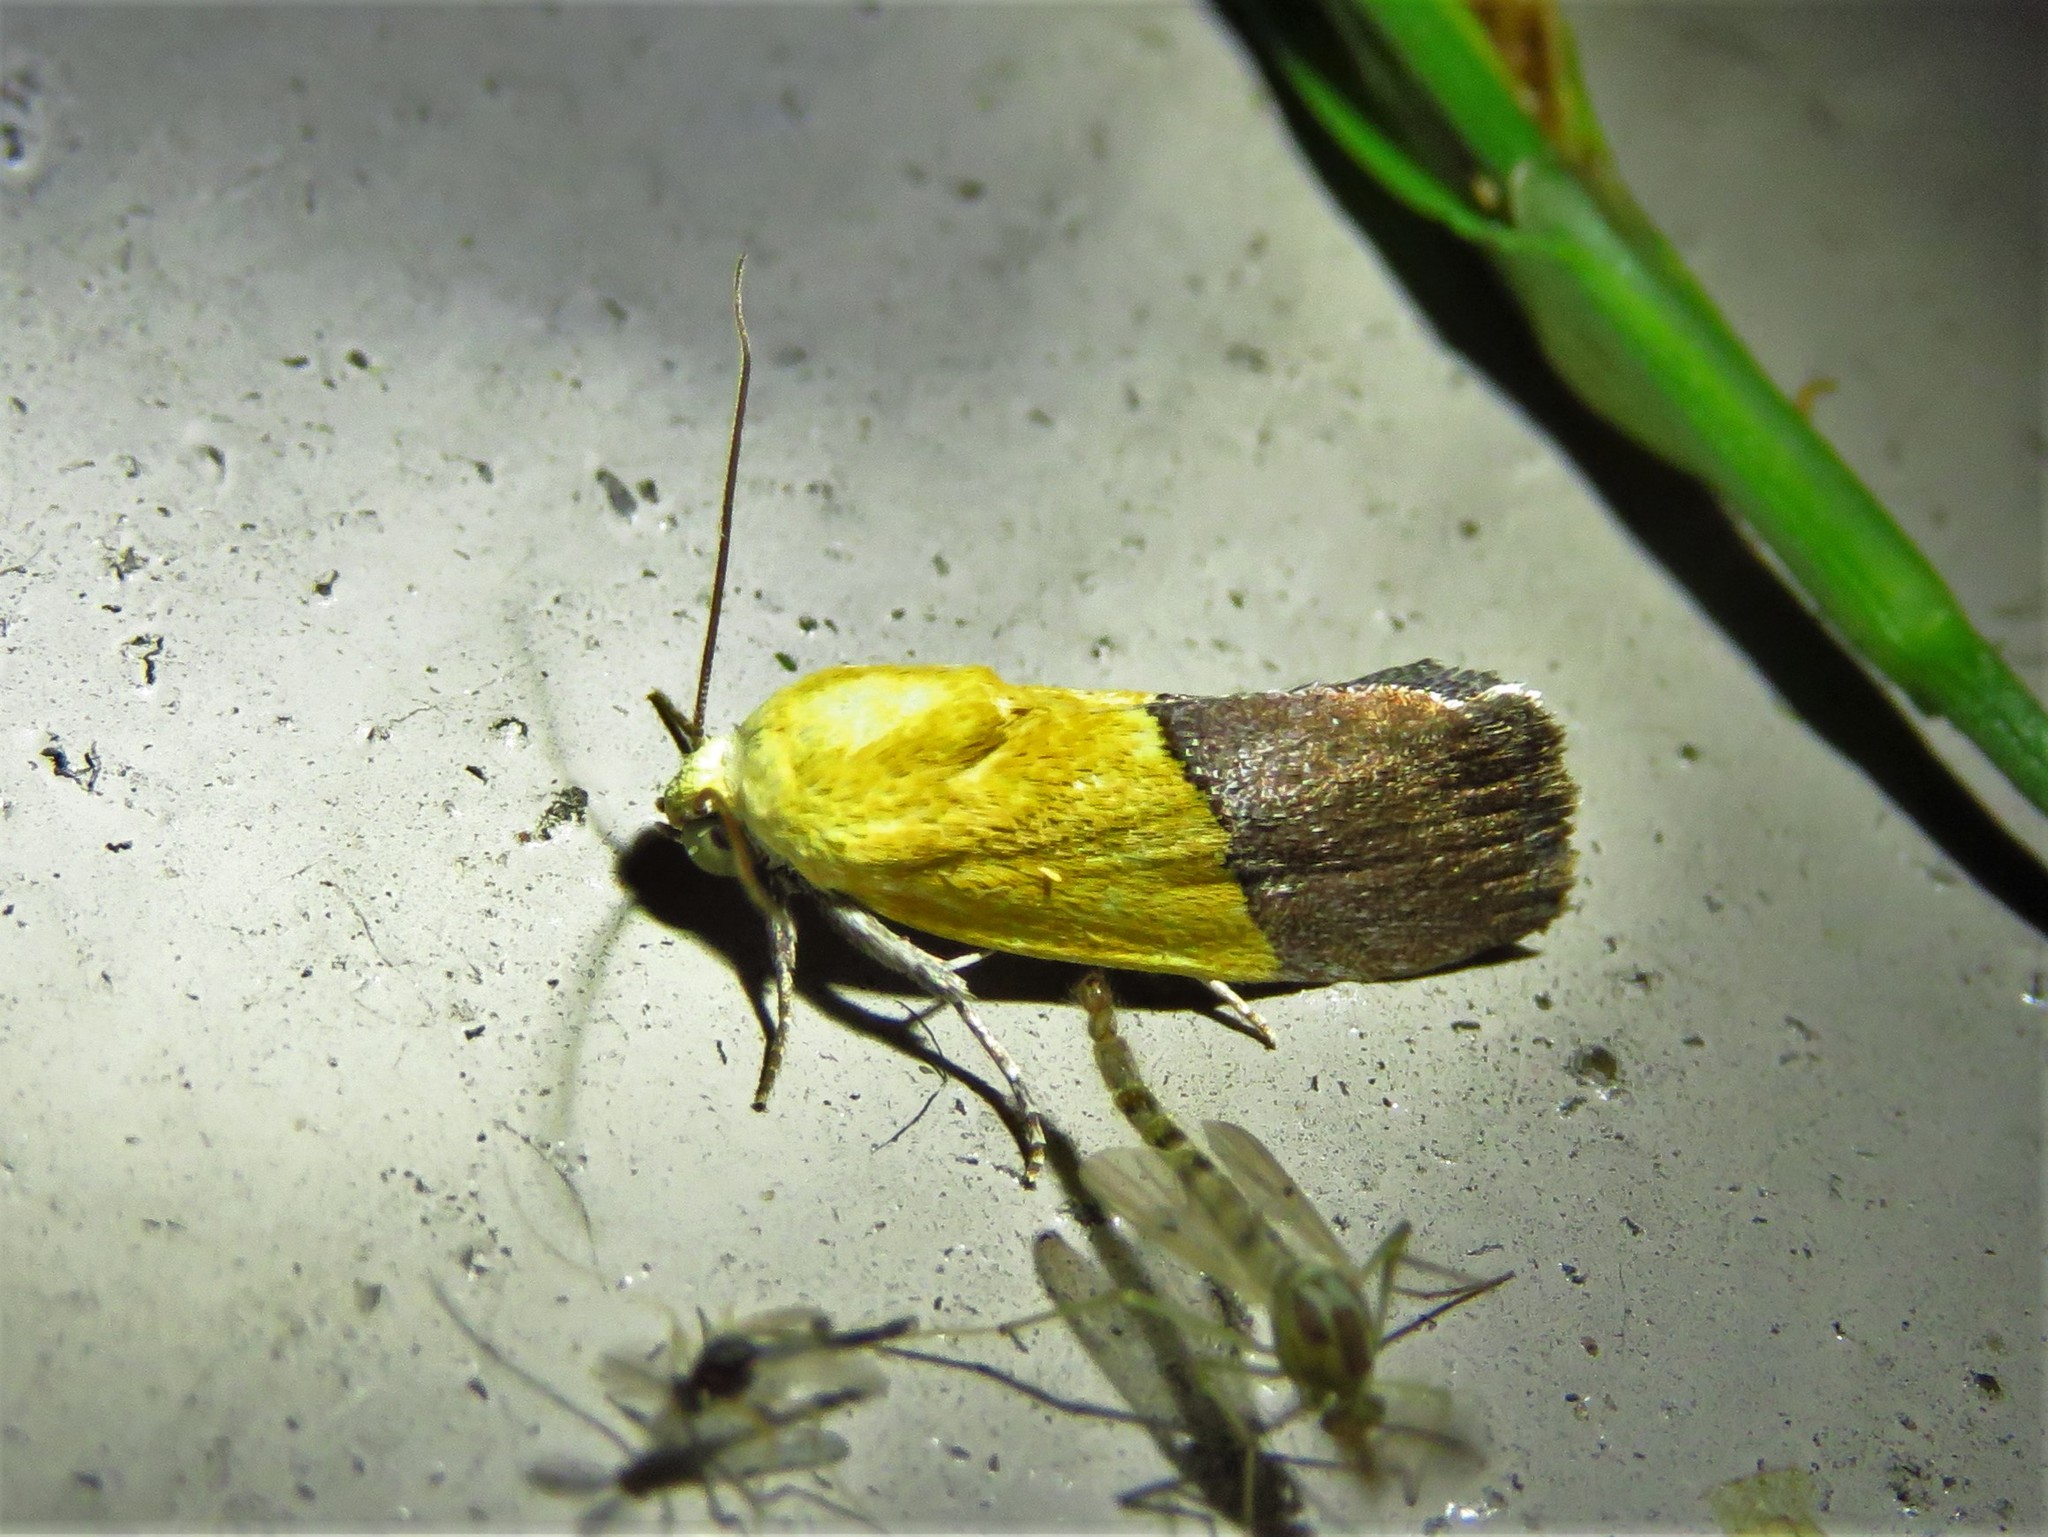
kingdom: Animalia
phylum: Arthropoda
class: Insecta
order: Lepidoptera
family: Noctuidae
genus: Acontia
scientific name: Acontia semiflava
